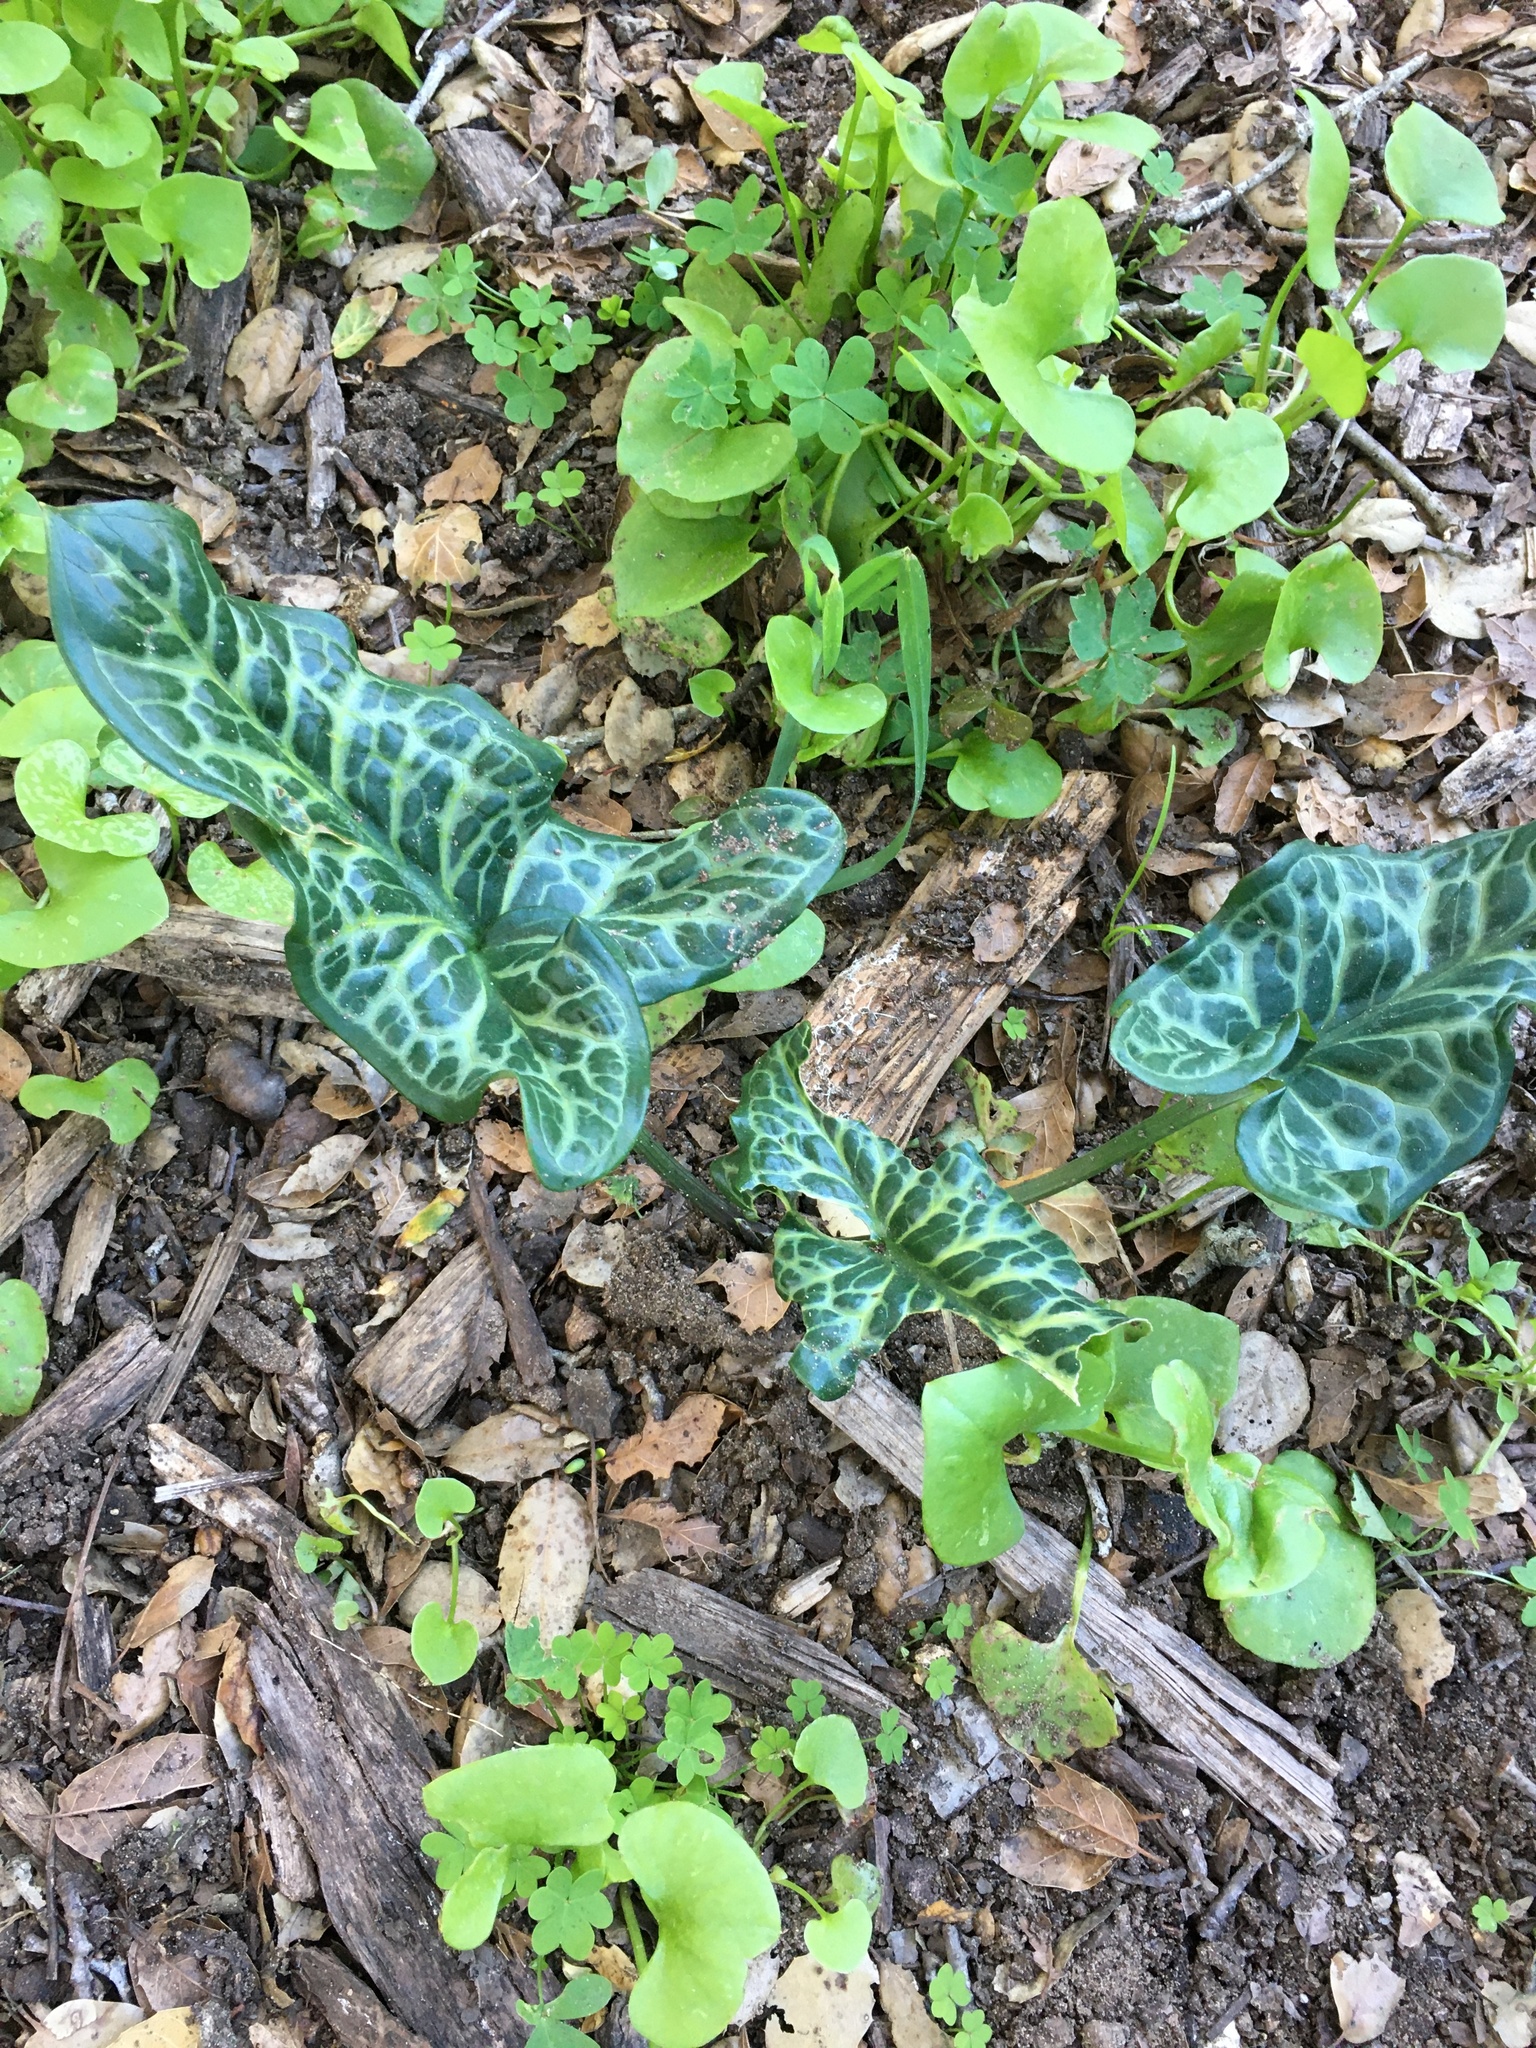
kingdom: Plantae
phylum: Tracheophyta
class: Liliopsida
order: Alismatales
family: Araceae
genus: Arum
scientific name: Arum italicum
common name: Italian lords-and-ladies
